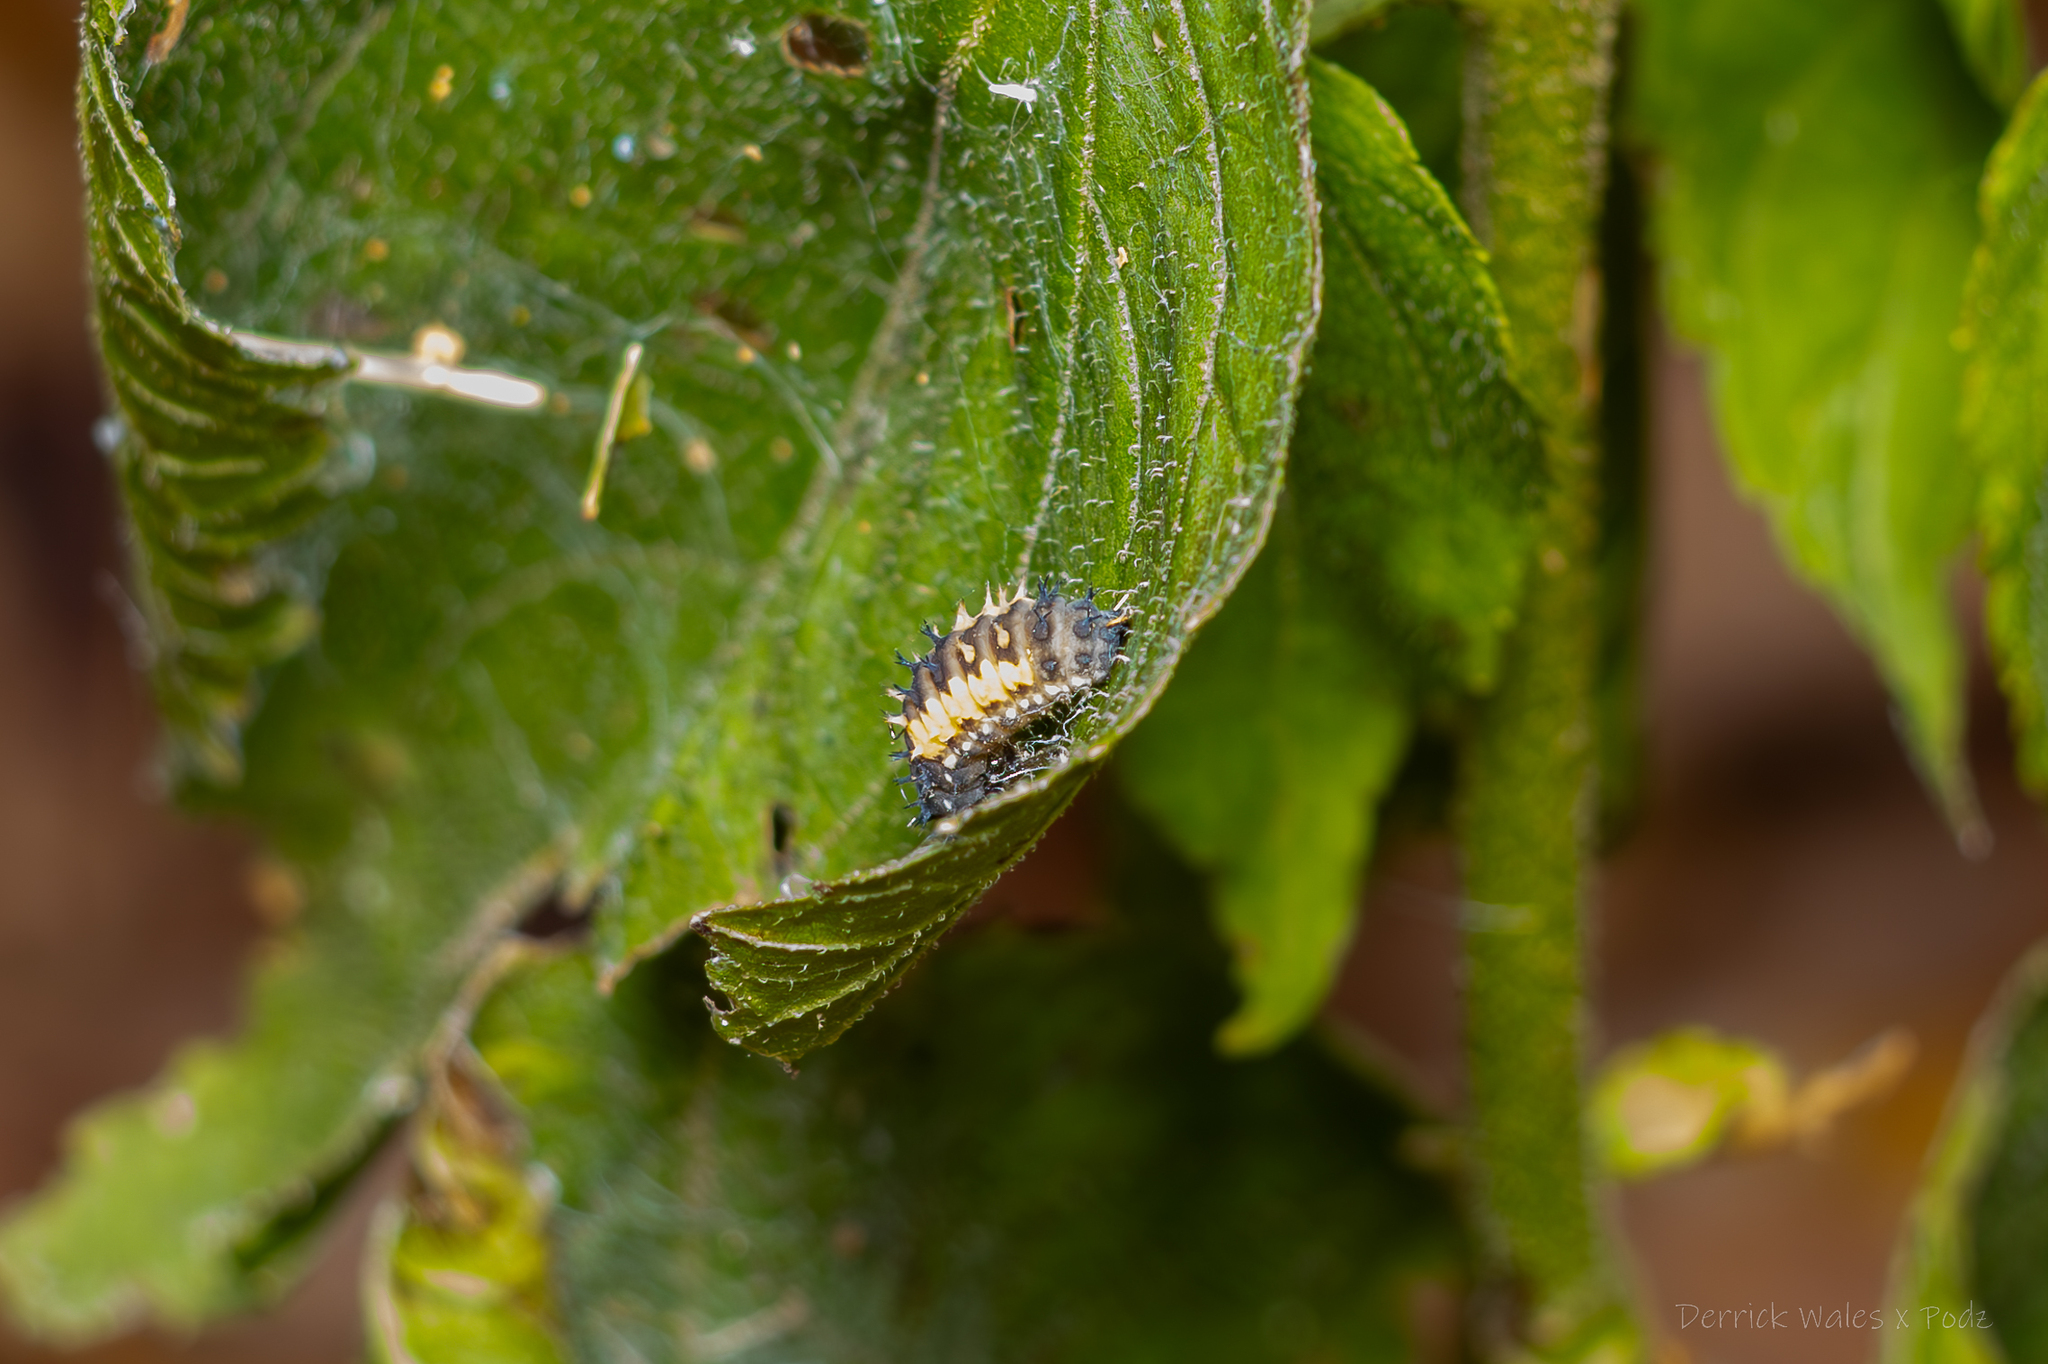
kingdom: Animalia
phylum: Arthropoda
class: Insecta
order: Coleoptera
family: Coccinellidae
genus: Harmonia
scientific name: Harmonia axyridis
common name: Harlequin ladybird
